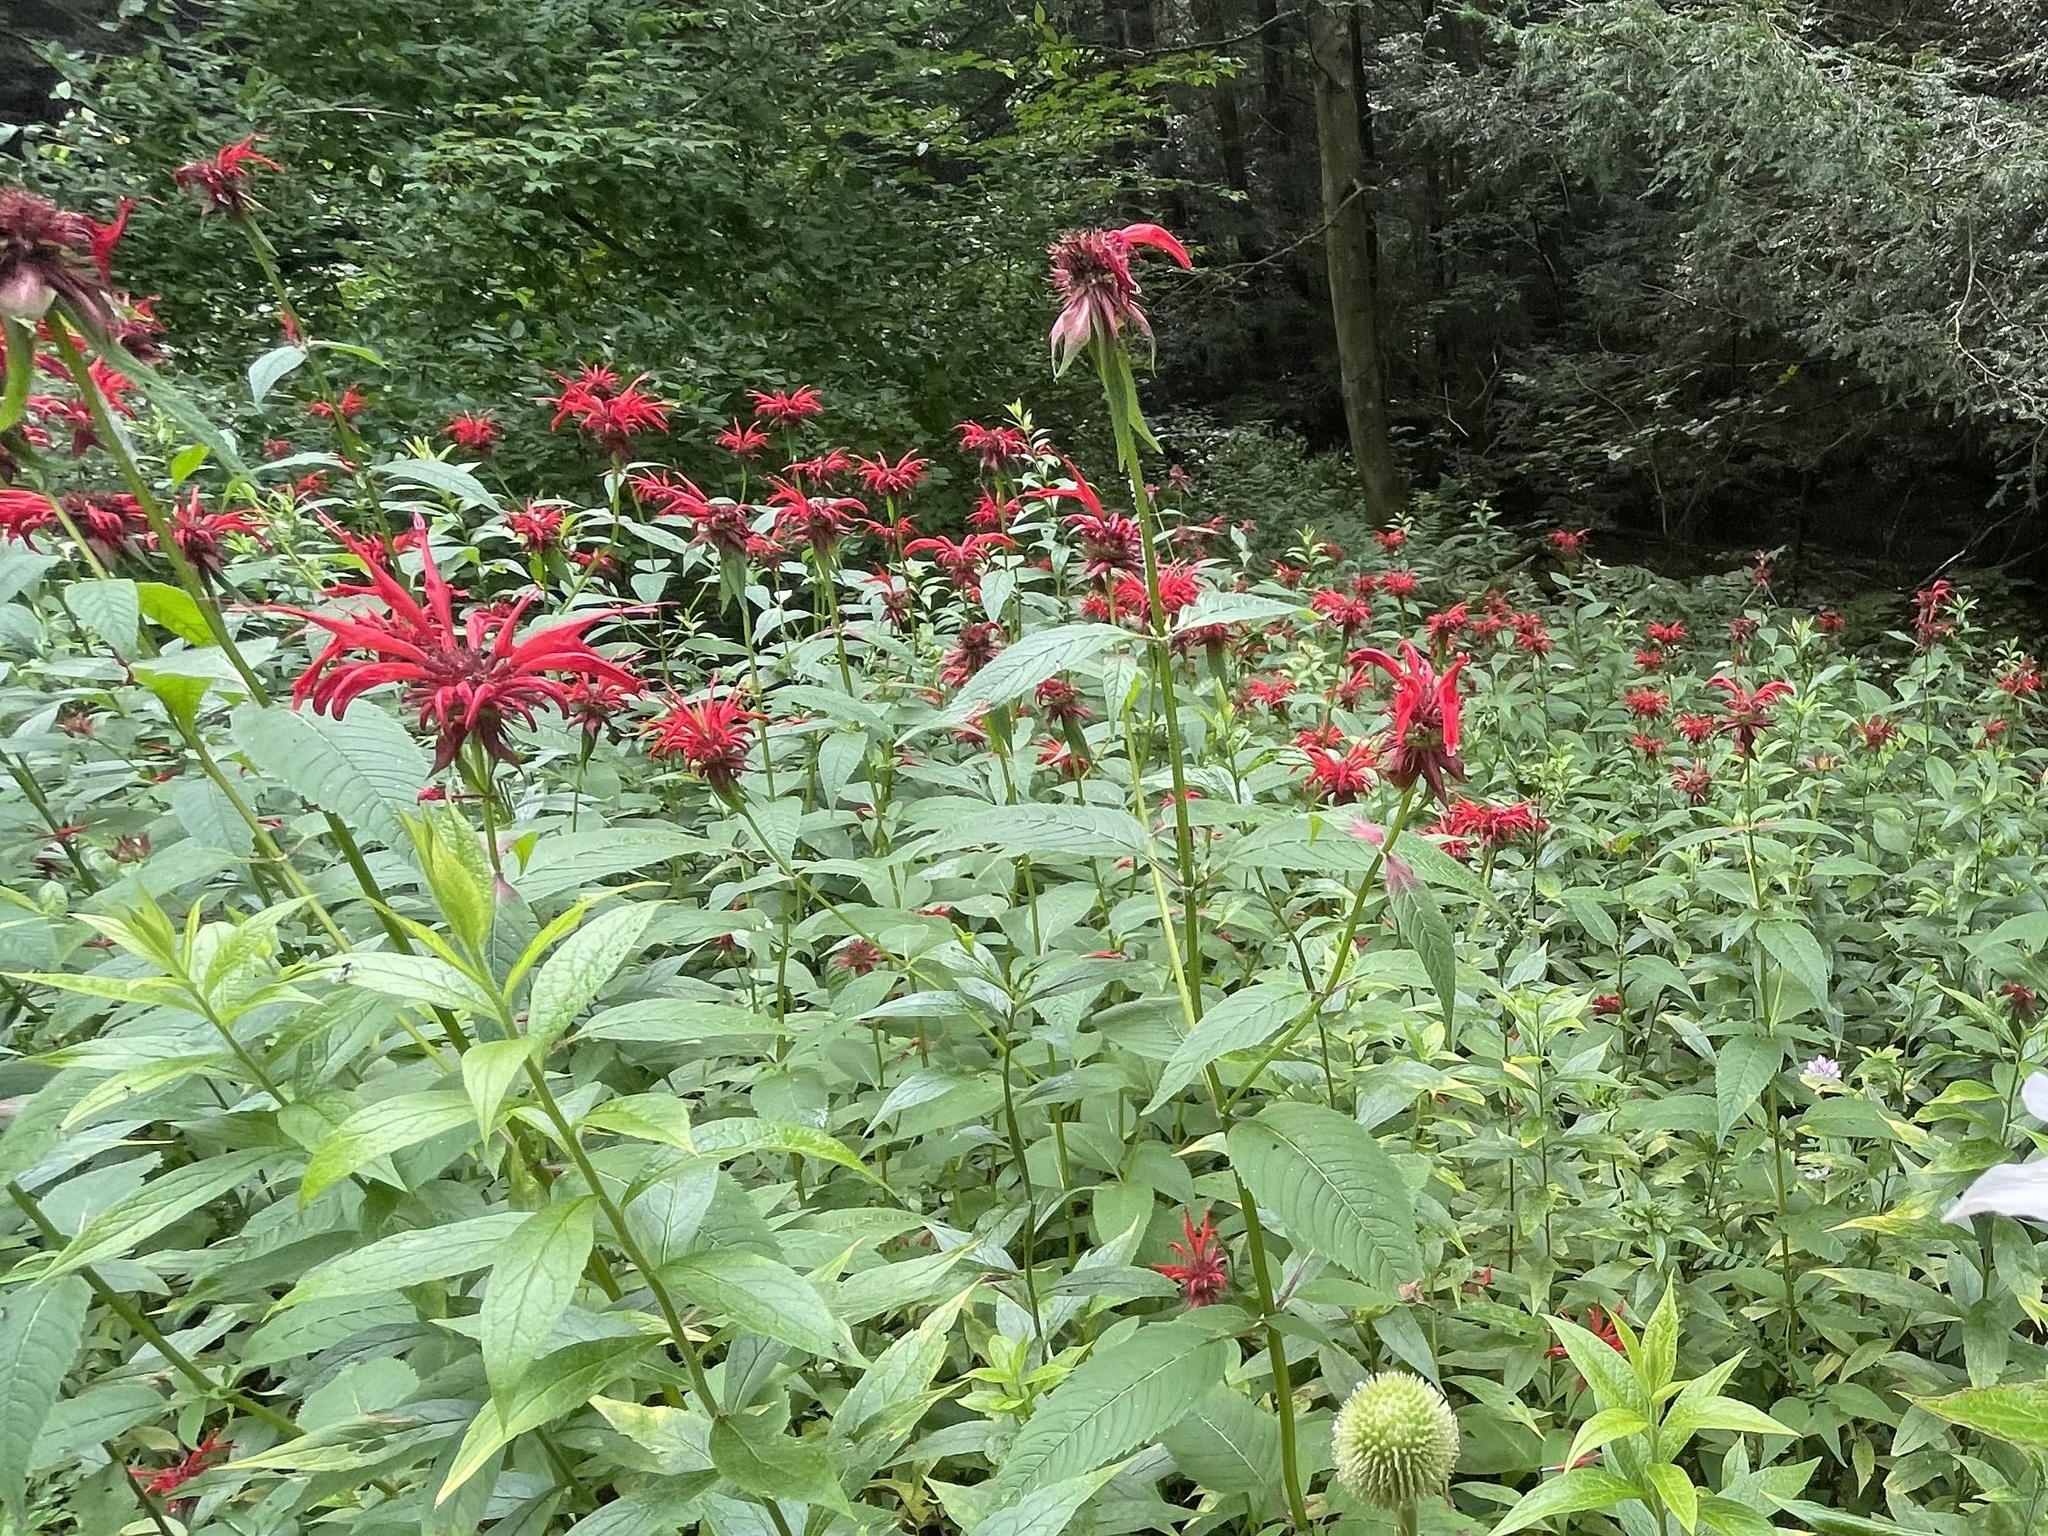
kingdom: Plantae
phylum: Tracheophyta
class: Magnoliopsida
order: Lamiales
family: Lamiaceae
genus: Monarda
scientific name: Monarda didyma
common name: Beebalm
